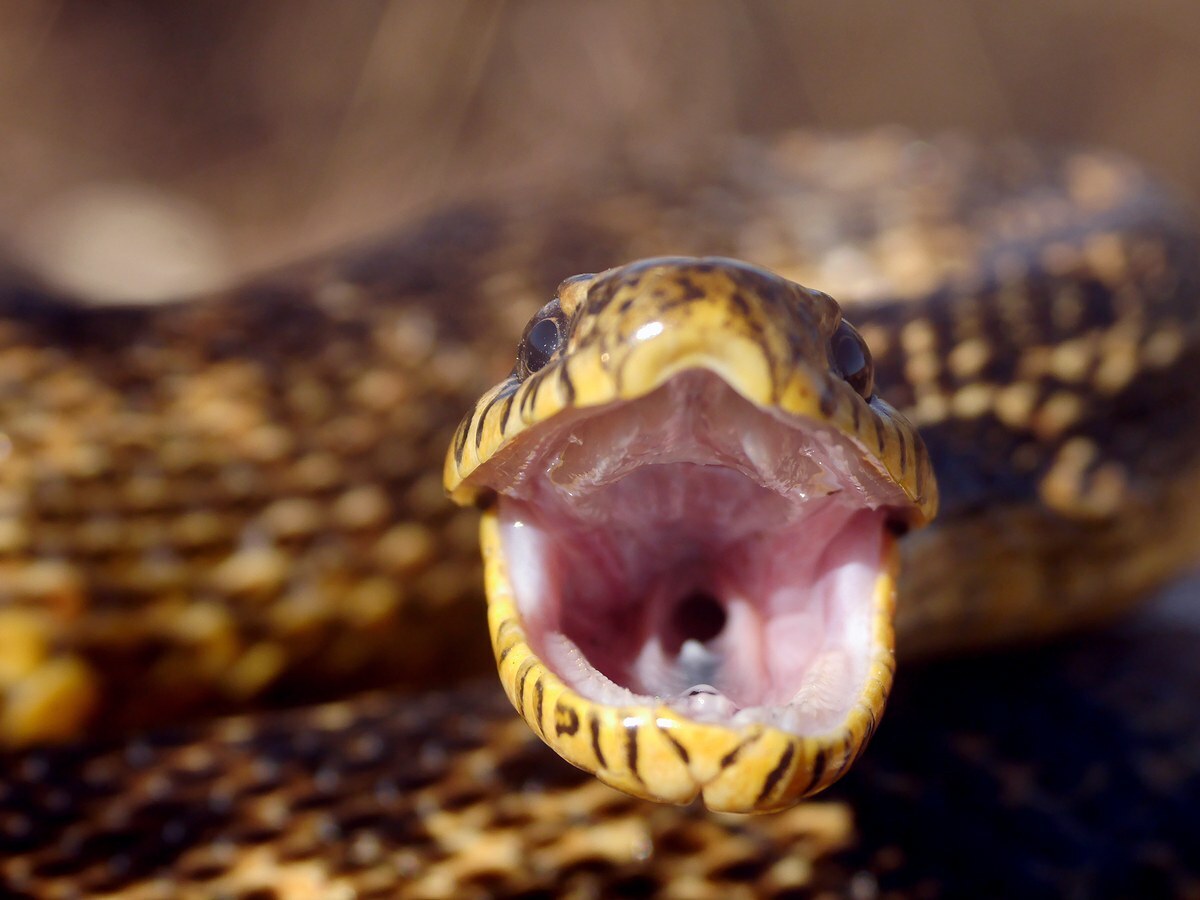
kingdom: Animalia
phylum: Chordata
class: Squamata
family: Colubridae
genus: Elaphe
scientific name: Elaphe sauromates
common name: Eastern four-lined ratsnake
